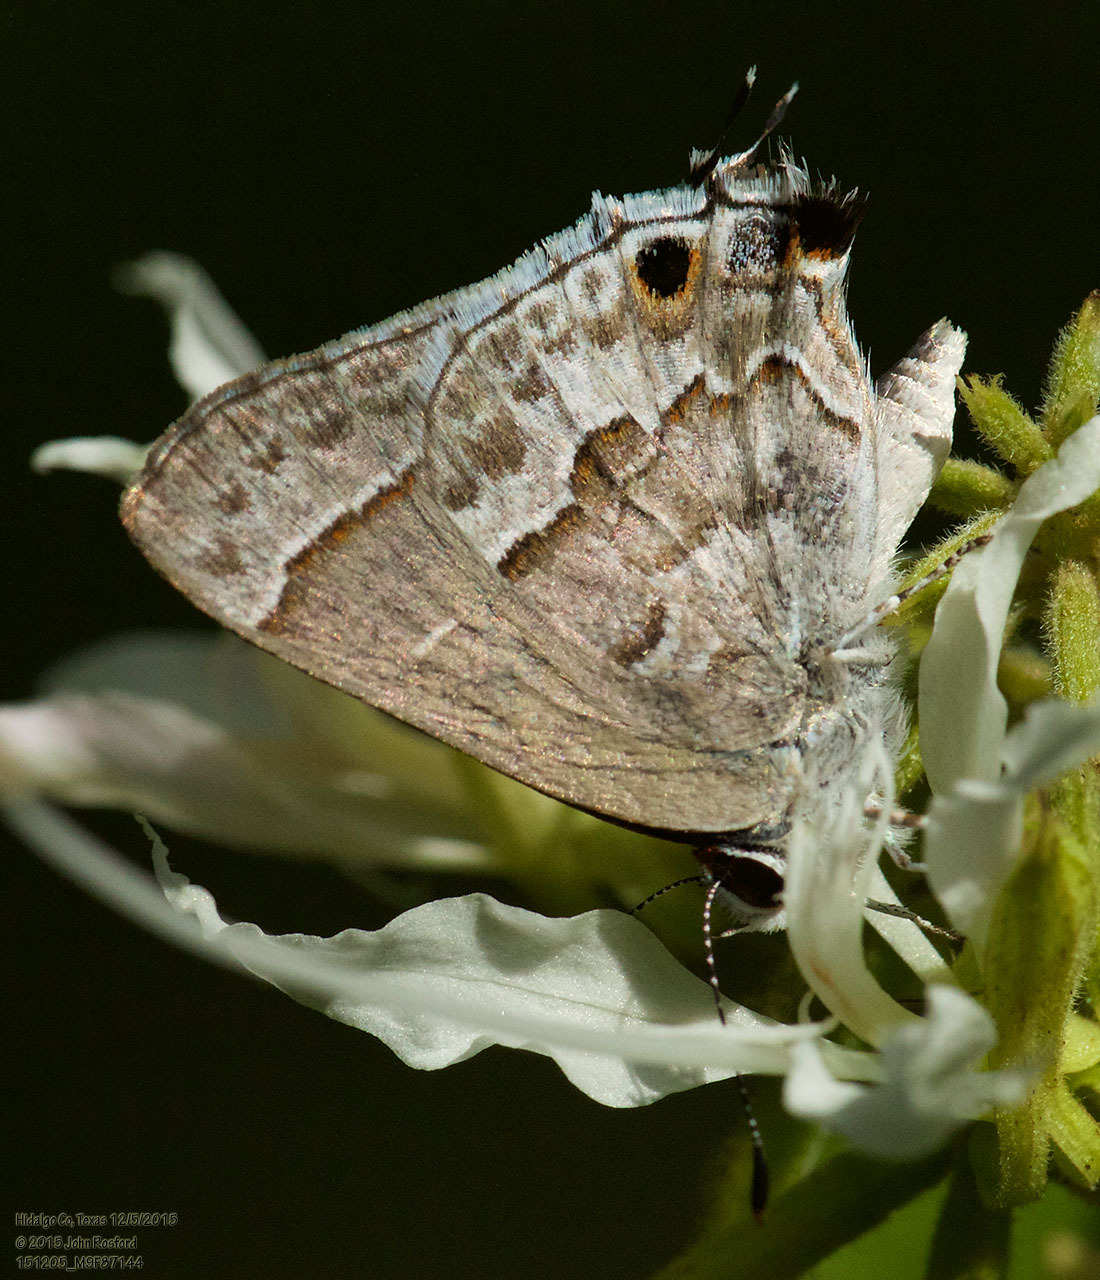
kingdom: Animalia
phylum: Arthropoda
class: Insecta
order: Lepidoptera
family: Lycaenidae
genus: Strymon
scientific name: Strymon alea
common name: Lacey's scrub-hairstreak
